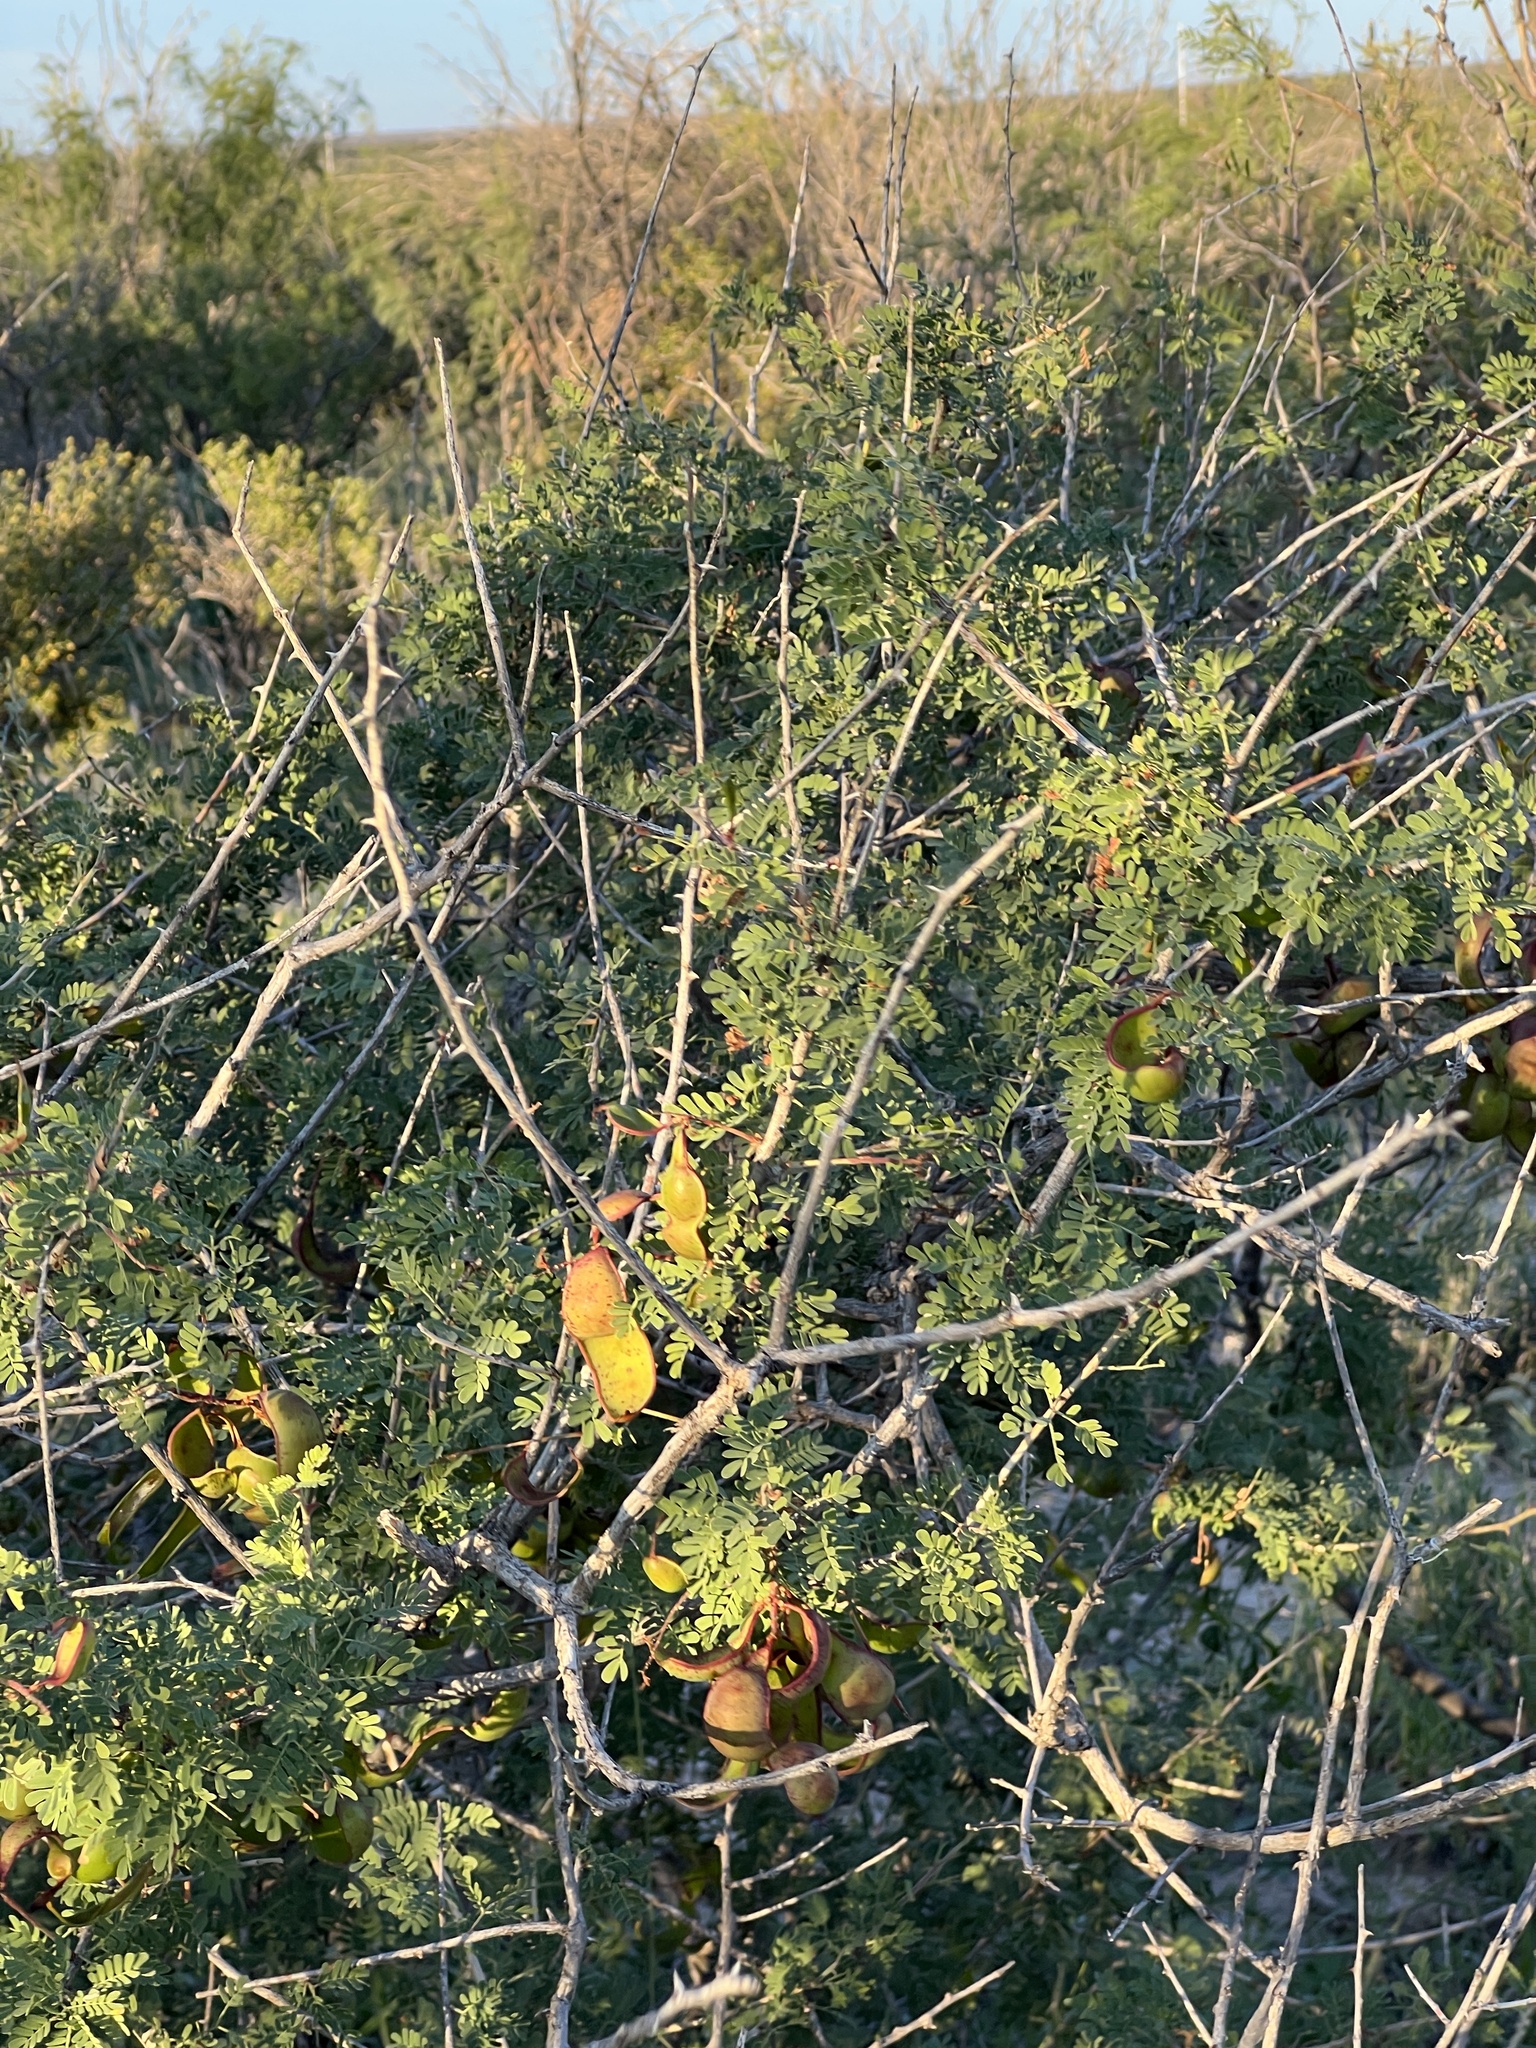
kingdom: Plantae
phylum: Tracheophyta
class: Magnoliopsida
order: Fabales
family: Fabaceae
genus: Senegalia
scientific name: Senegalia greggii
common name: Texas-mimosa
